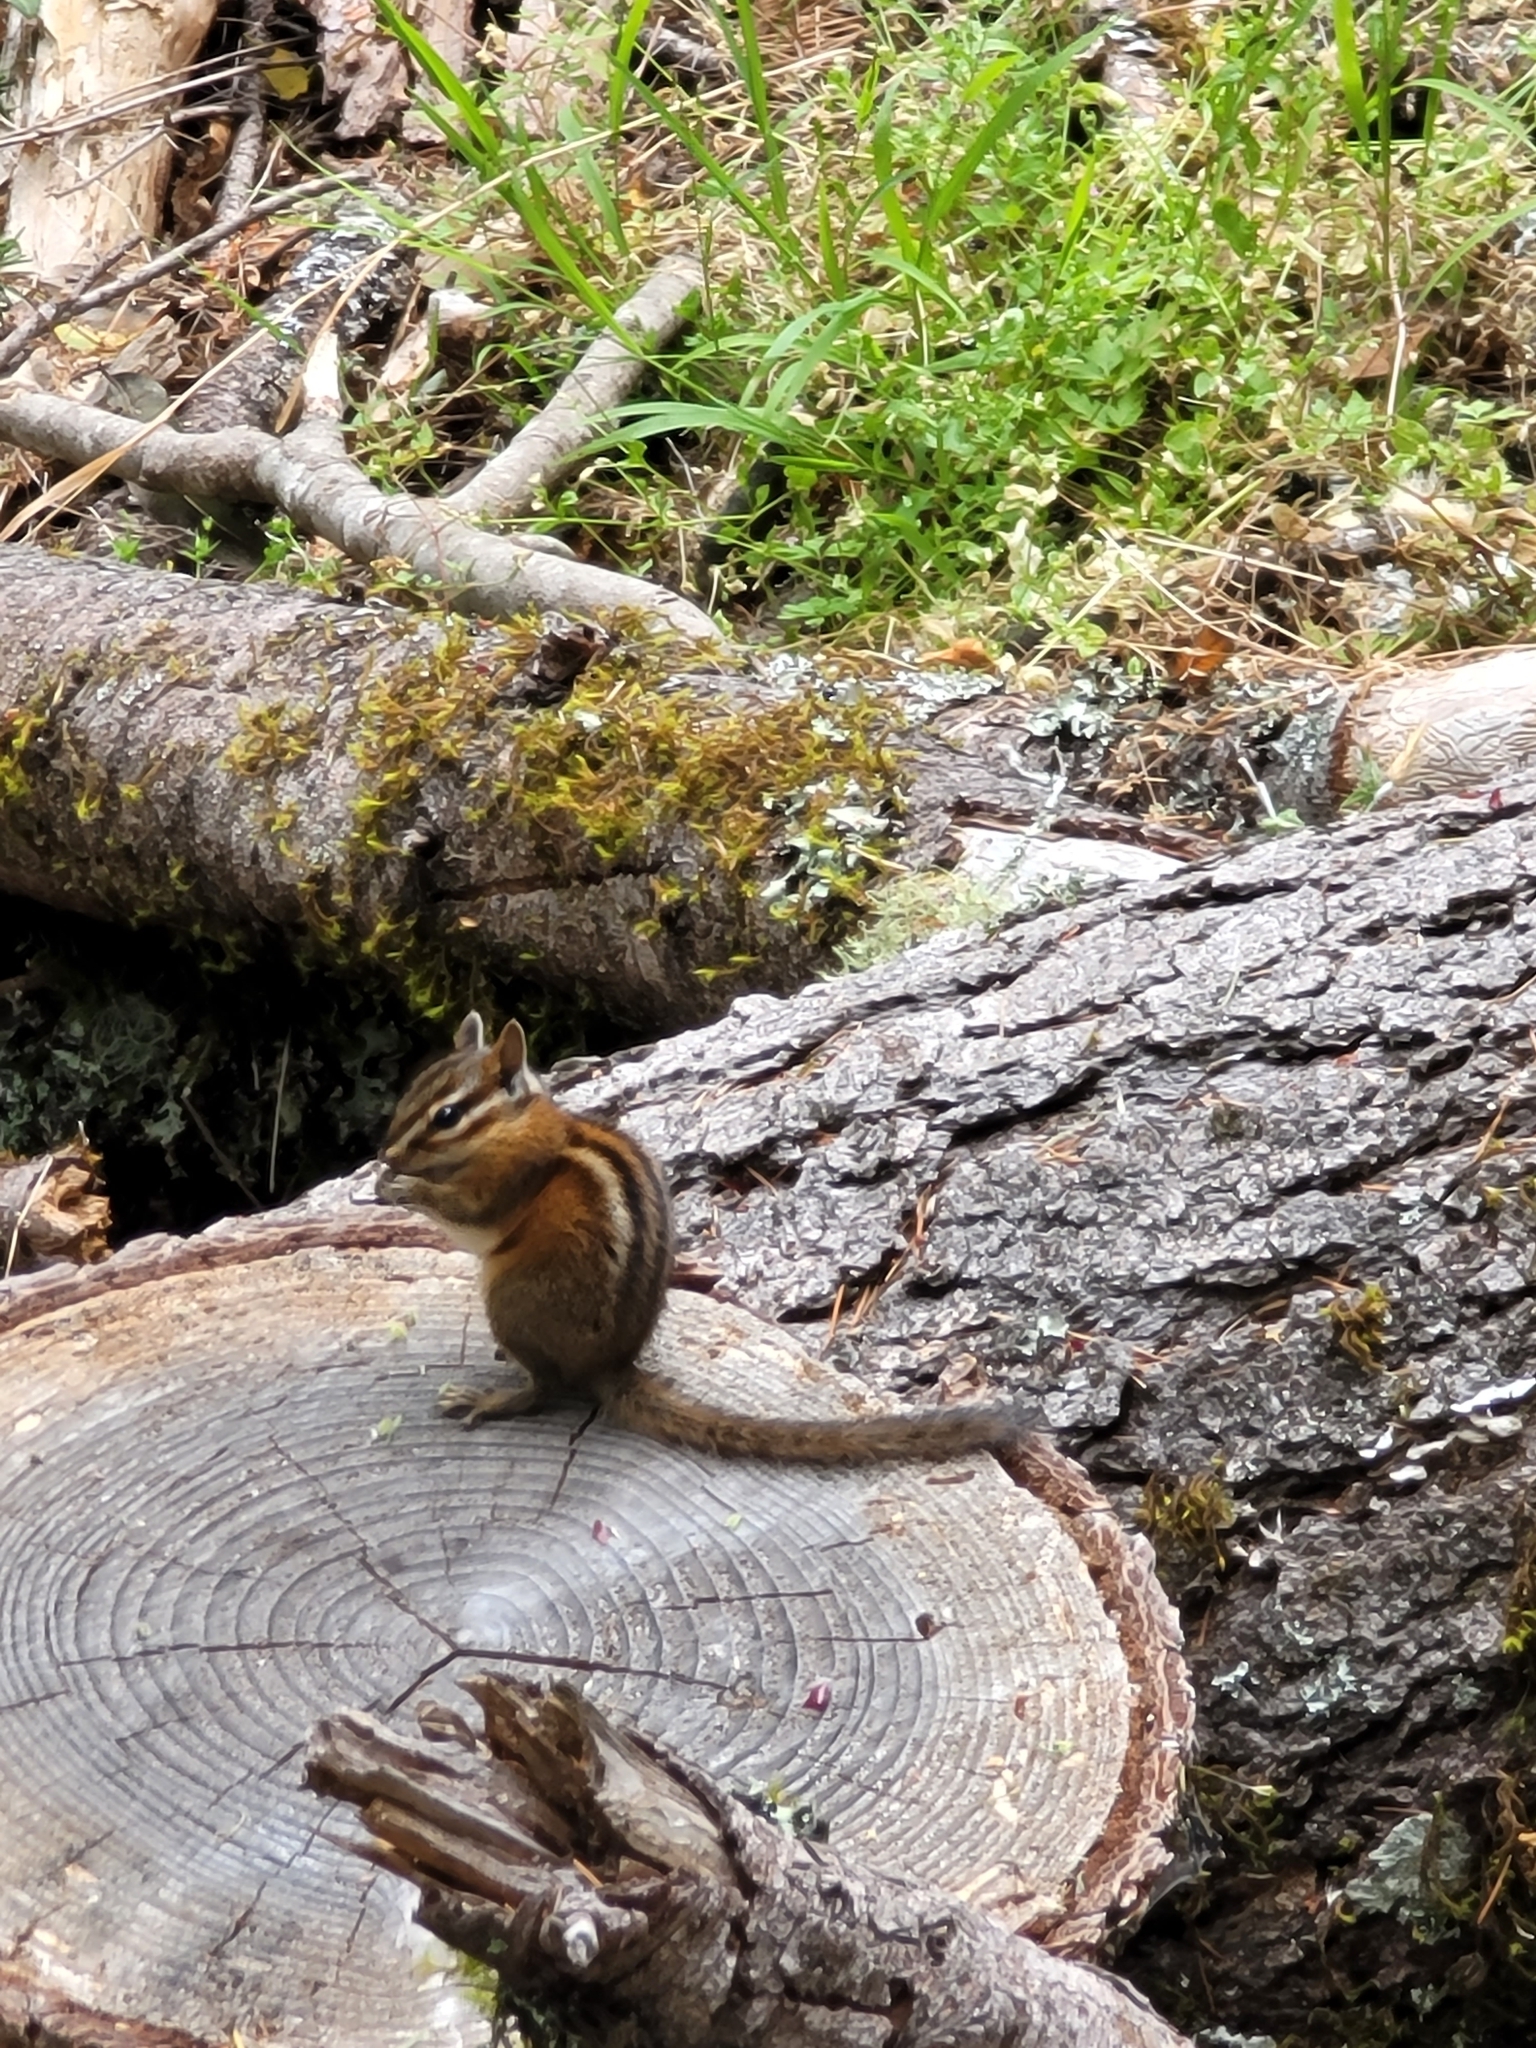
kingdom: Animalia
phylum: Chordata
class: Mammalia
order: Rodentia
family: Sciuridae
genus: Tamias
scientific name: Tamias sonomae
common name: Sonoma chipmunk
